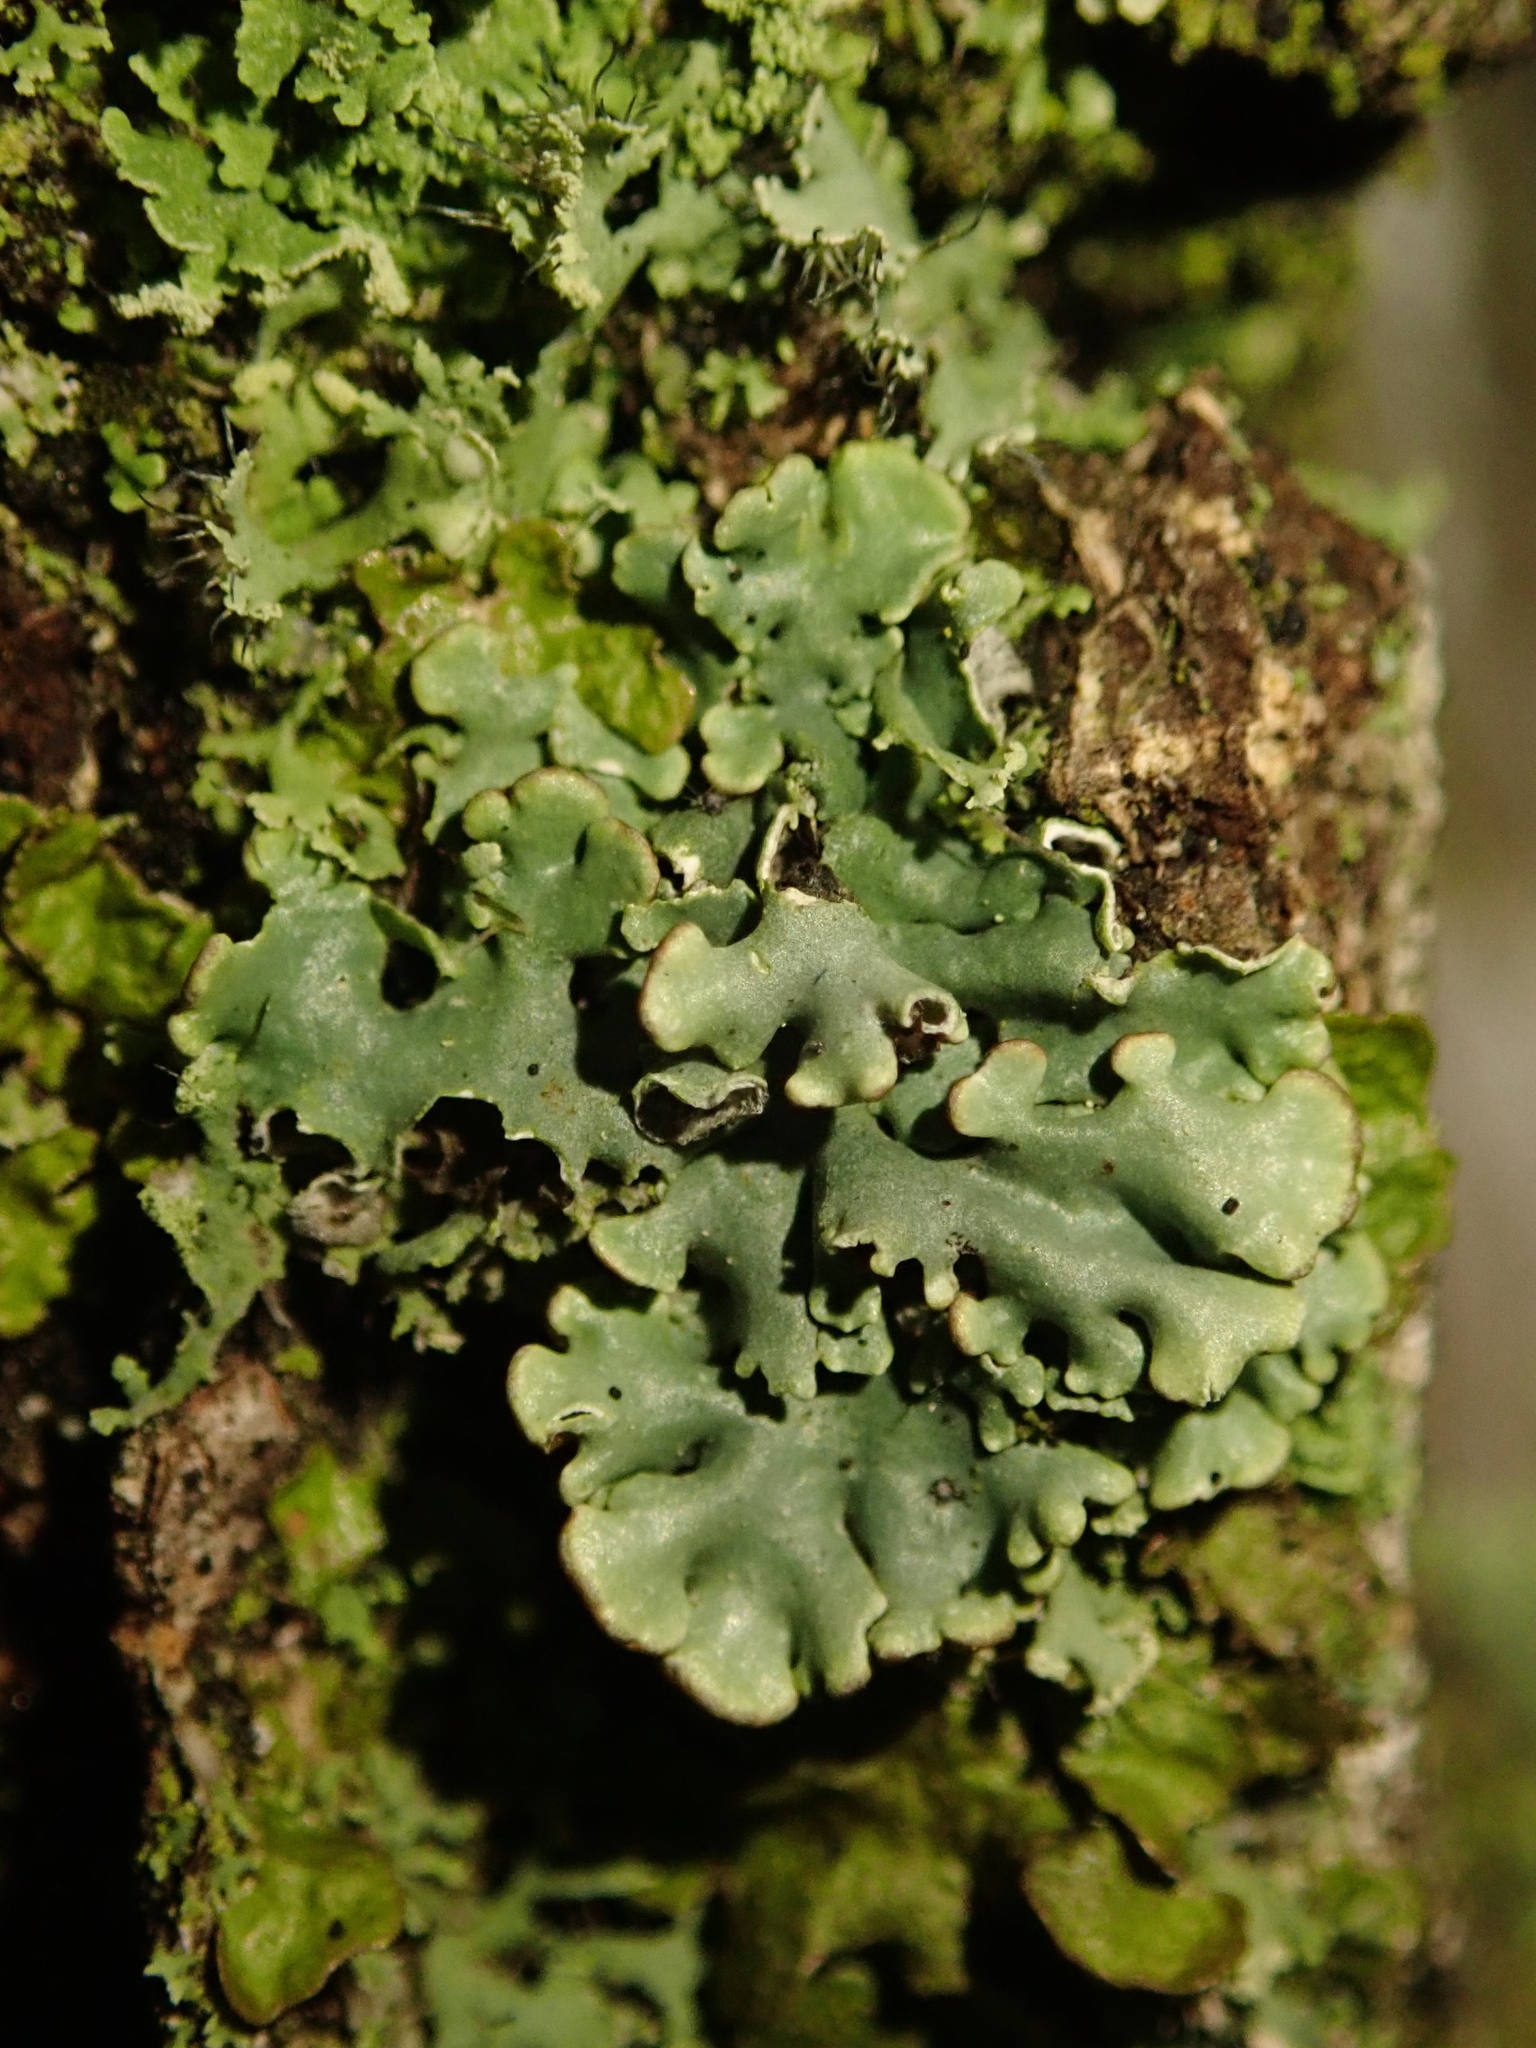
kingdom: Fungi
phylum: Ascomycota
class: Lecanoromycetes
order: Lecanorales
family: Parmeliaceae
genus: Hypogymnia
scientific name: Hypogymnia physodes
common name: Dark crottle
